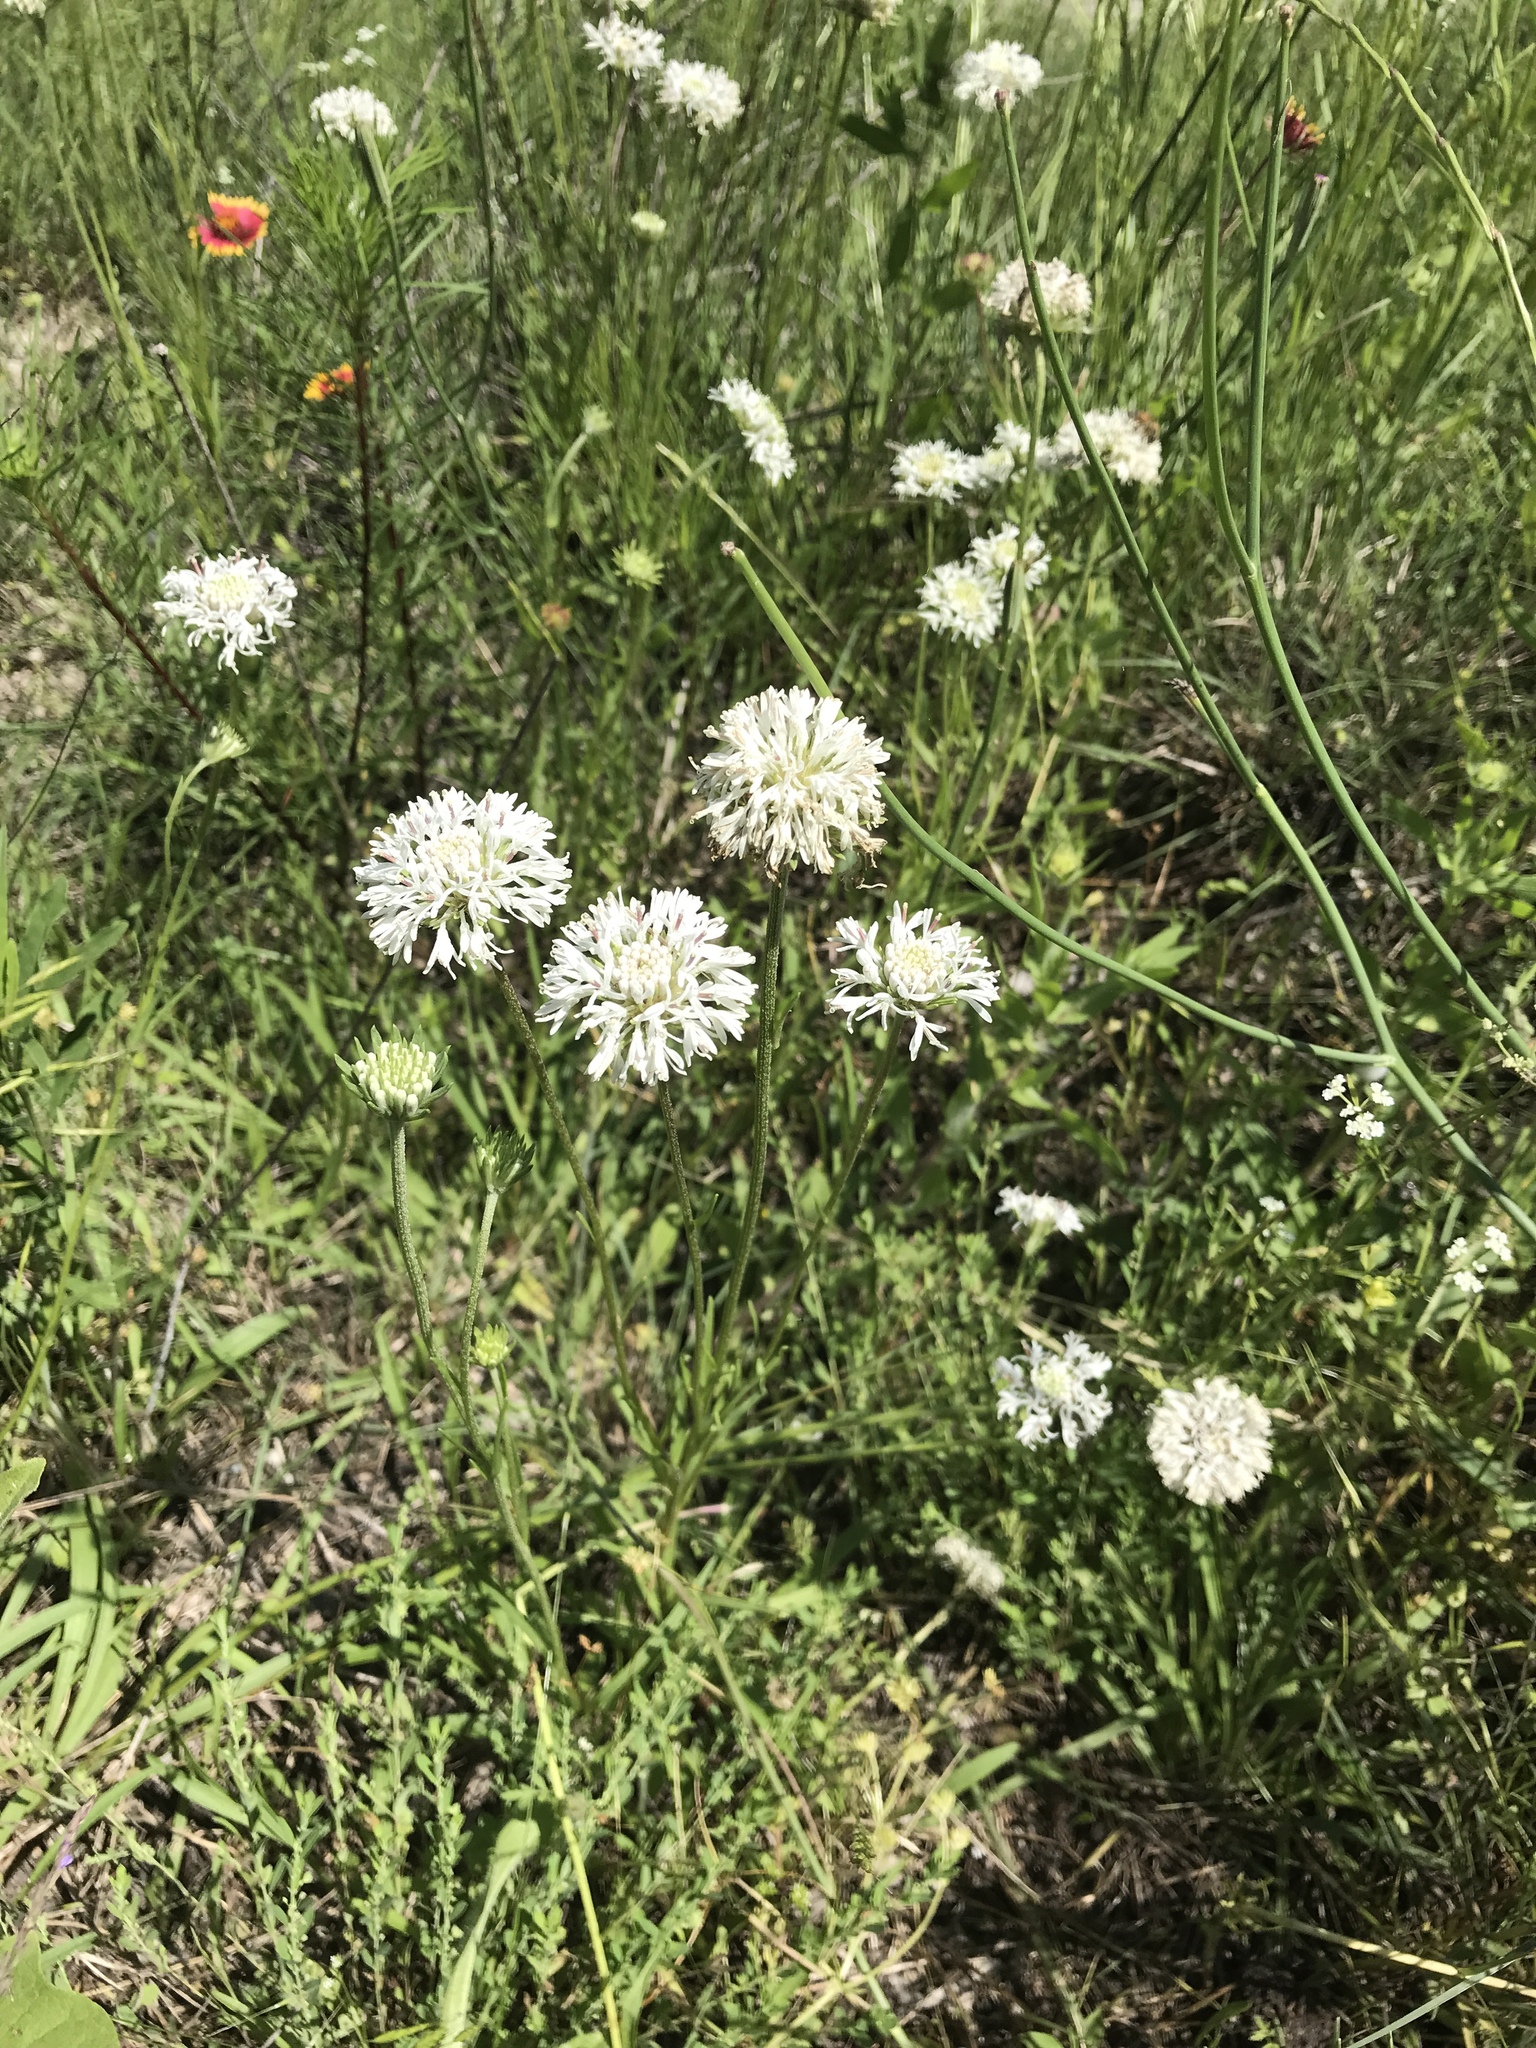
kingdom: Plantae
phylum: Tracheophyta
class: Magnoliopsida
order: Asterales
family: Asteraceae
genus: Marshallia
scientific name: Marshallia caespitosa
